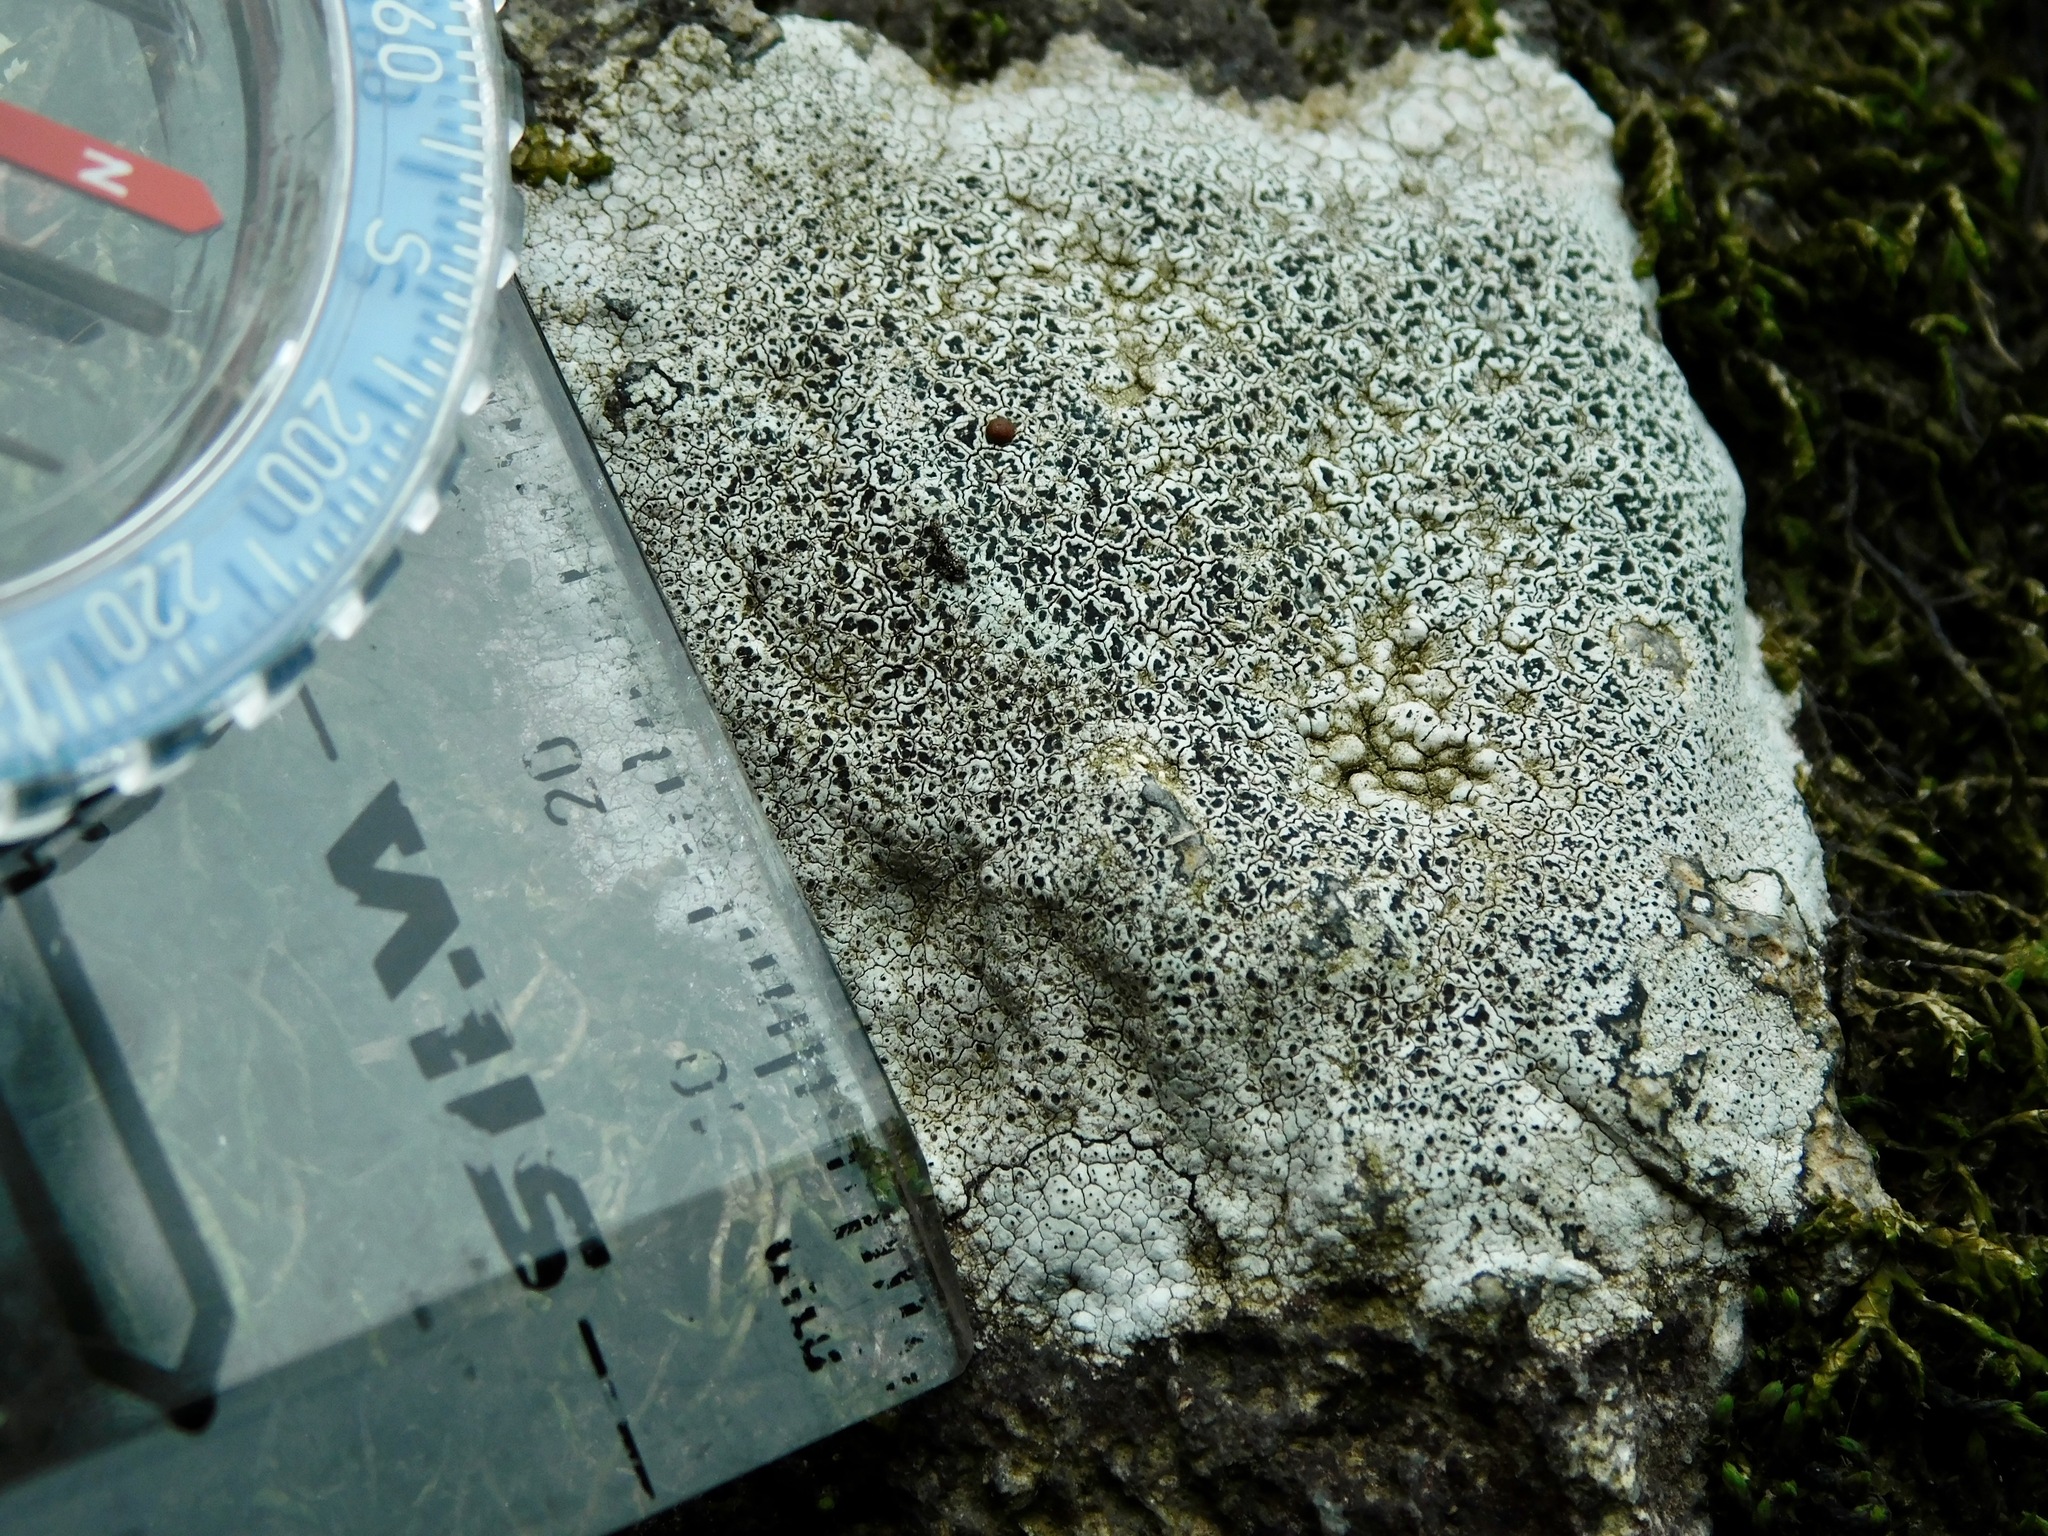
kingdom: Fungi
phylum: Ascomycota
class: Lecanoromycetes
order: Pertusariales
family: Megasporaceae
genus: Aspicilia
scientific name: Aspicilia aquatica
